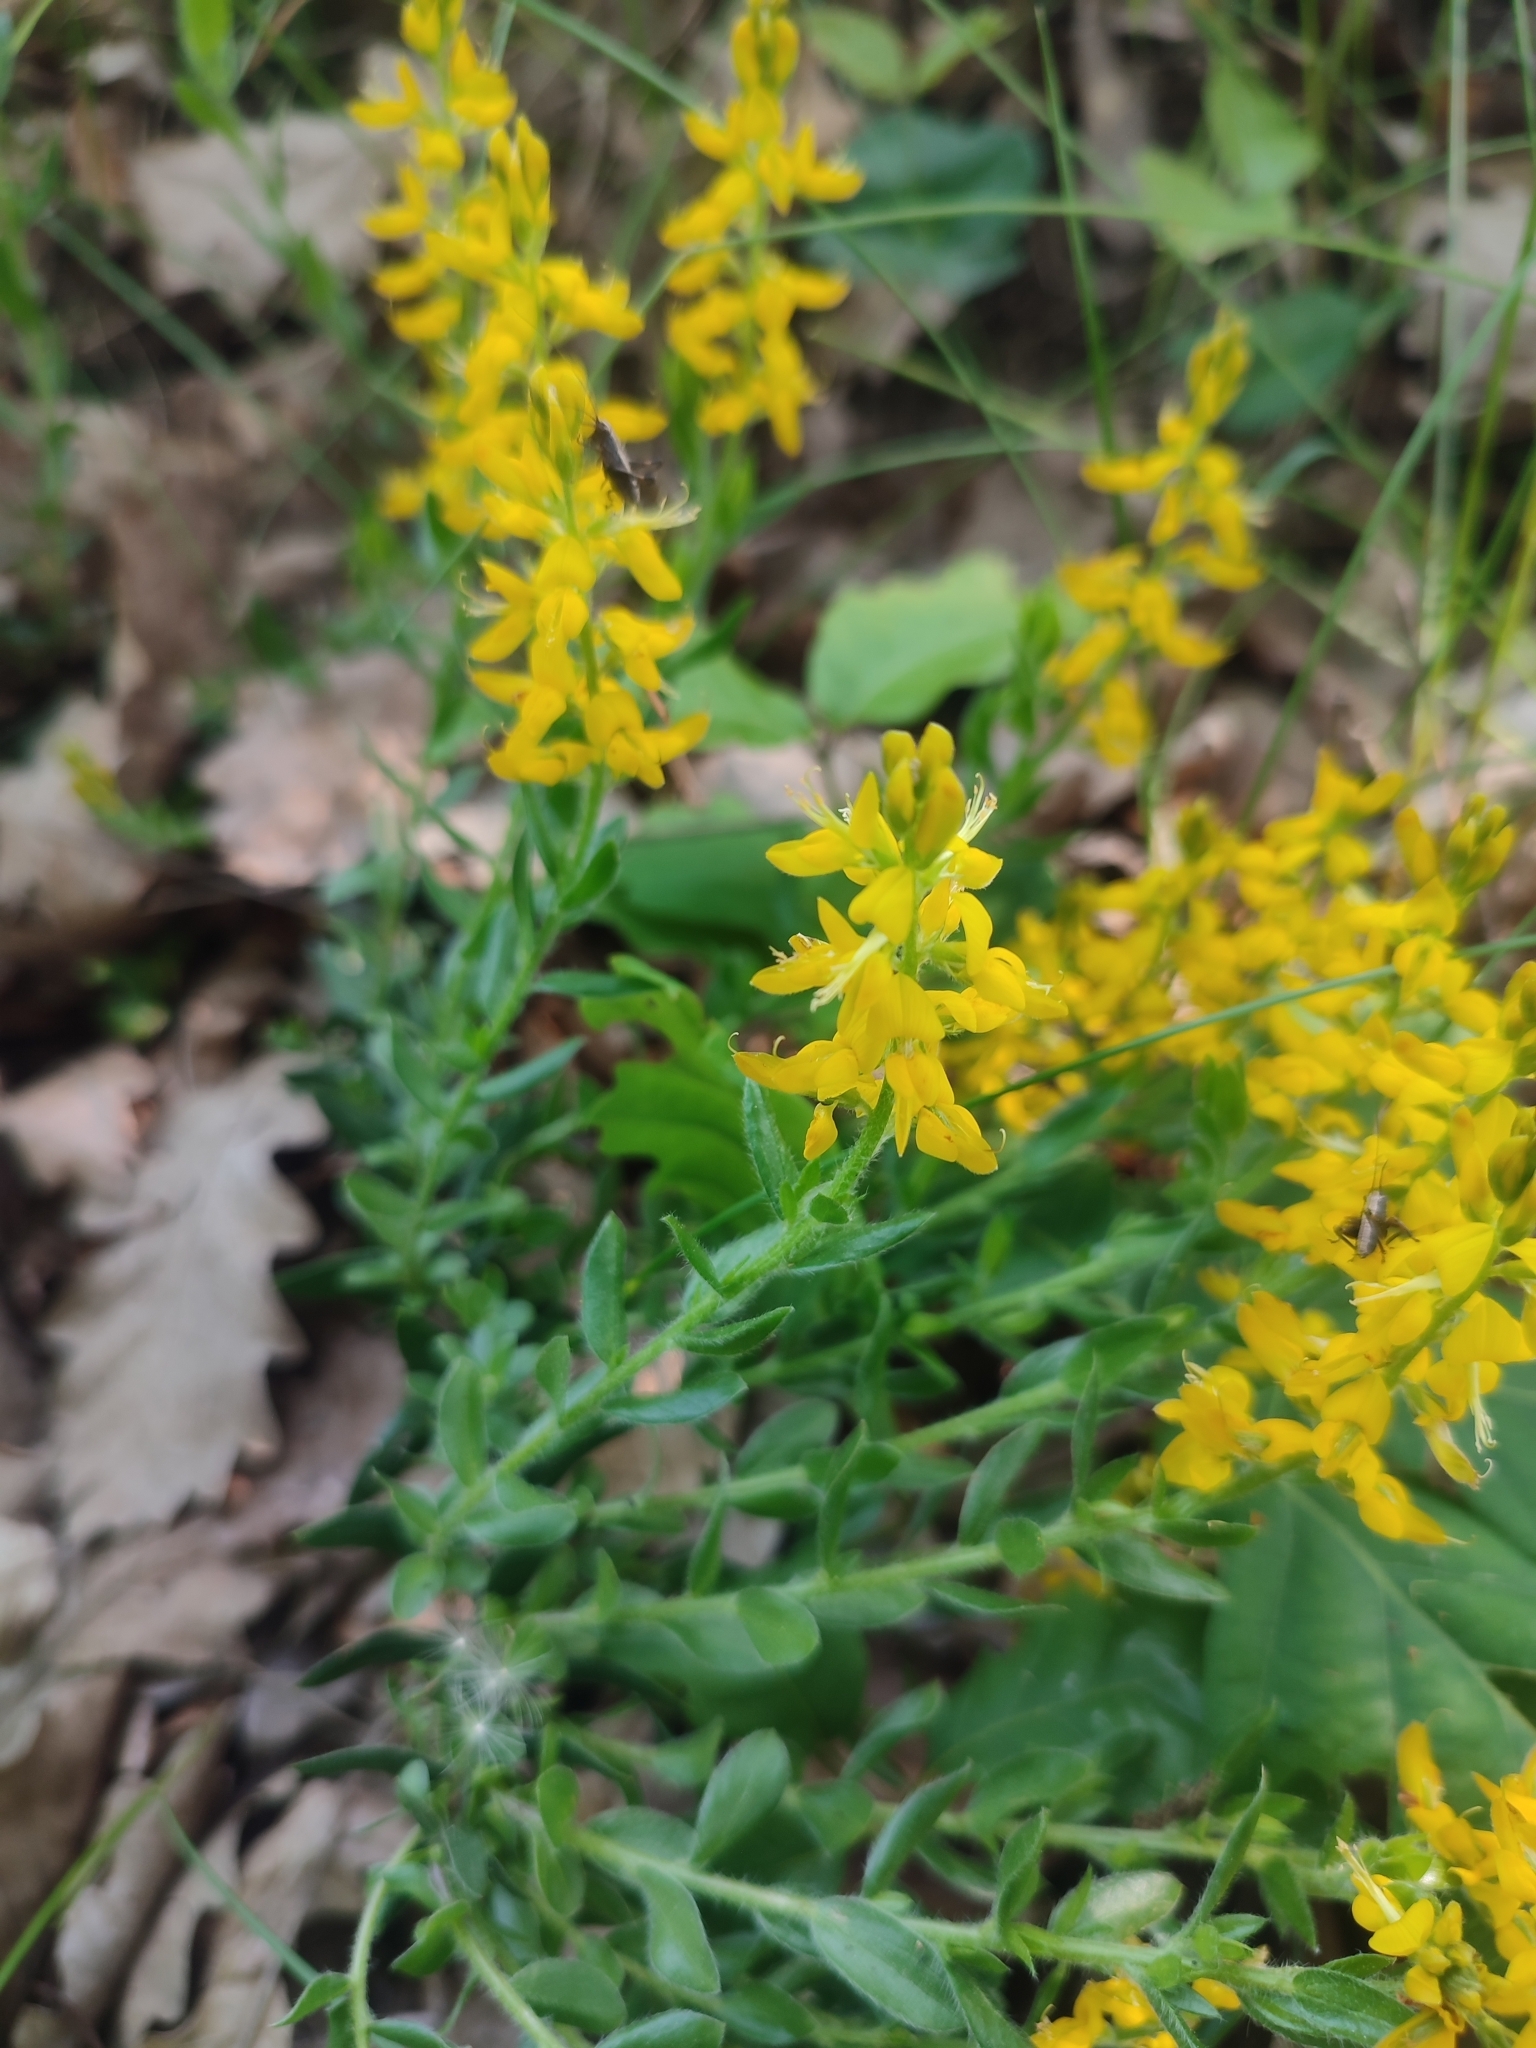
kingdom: Plantae
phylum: Tracheophyta
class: Magnoliopsida
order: Fabales
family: Fabaceae
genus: Genista
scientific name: Genista germanica
